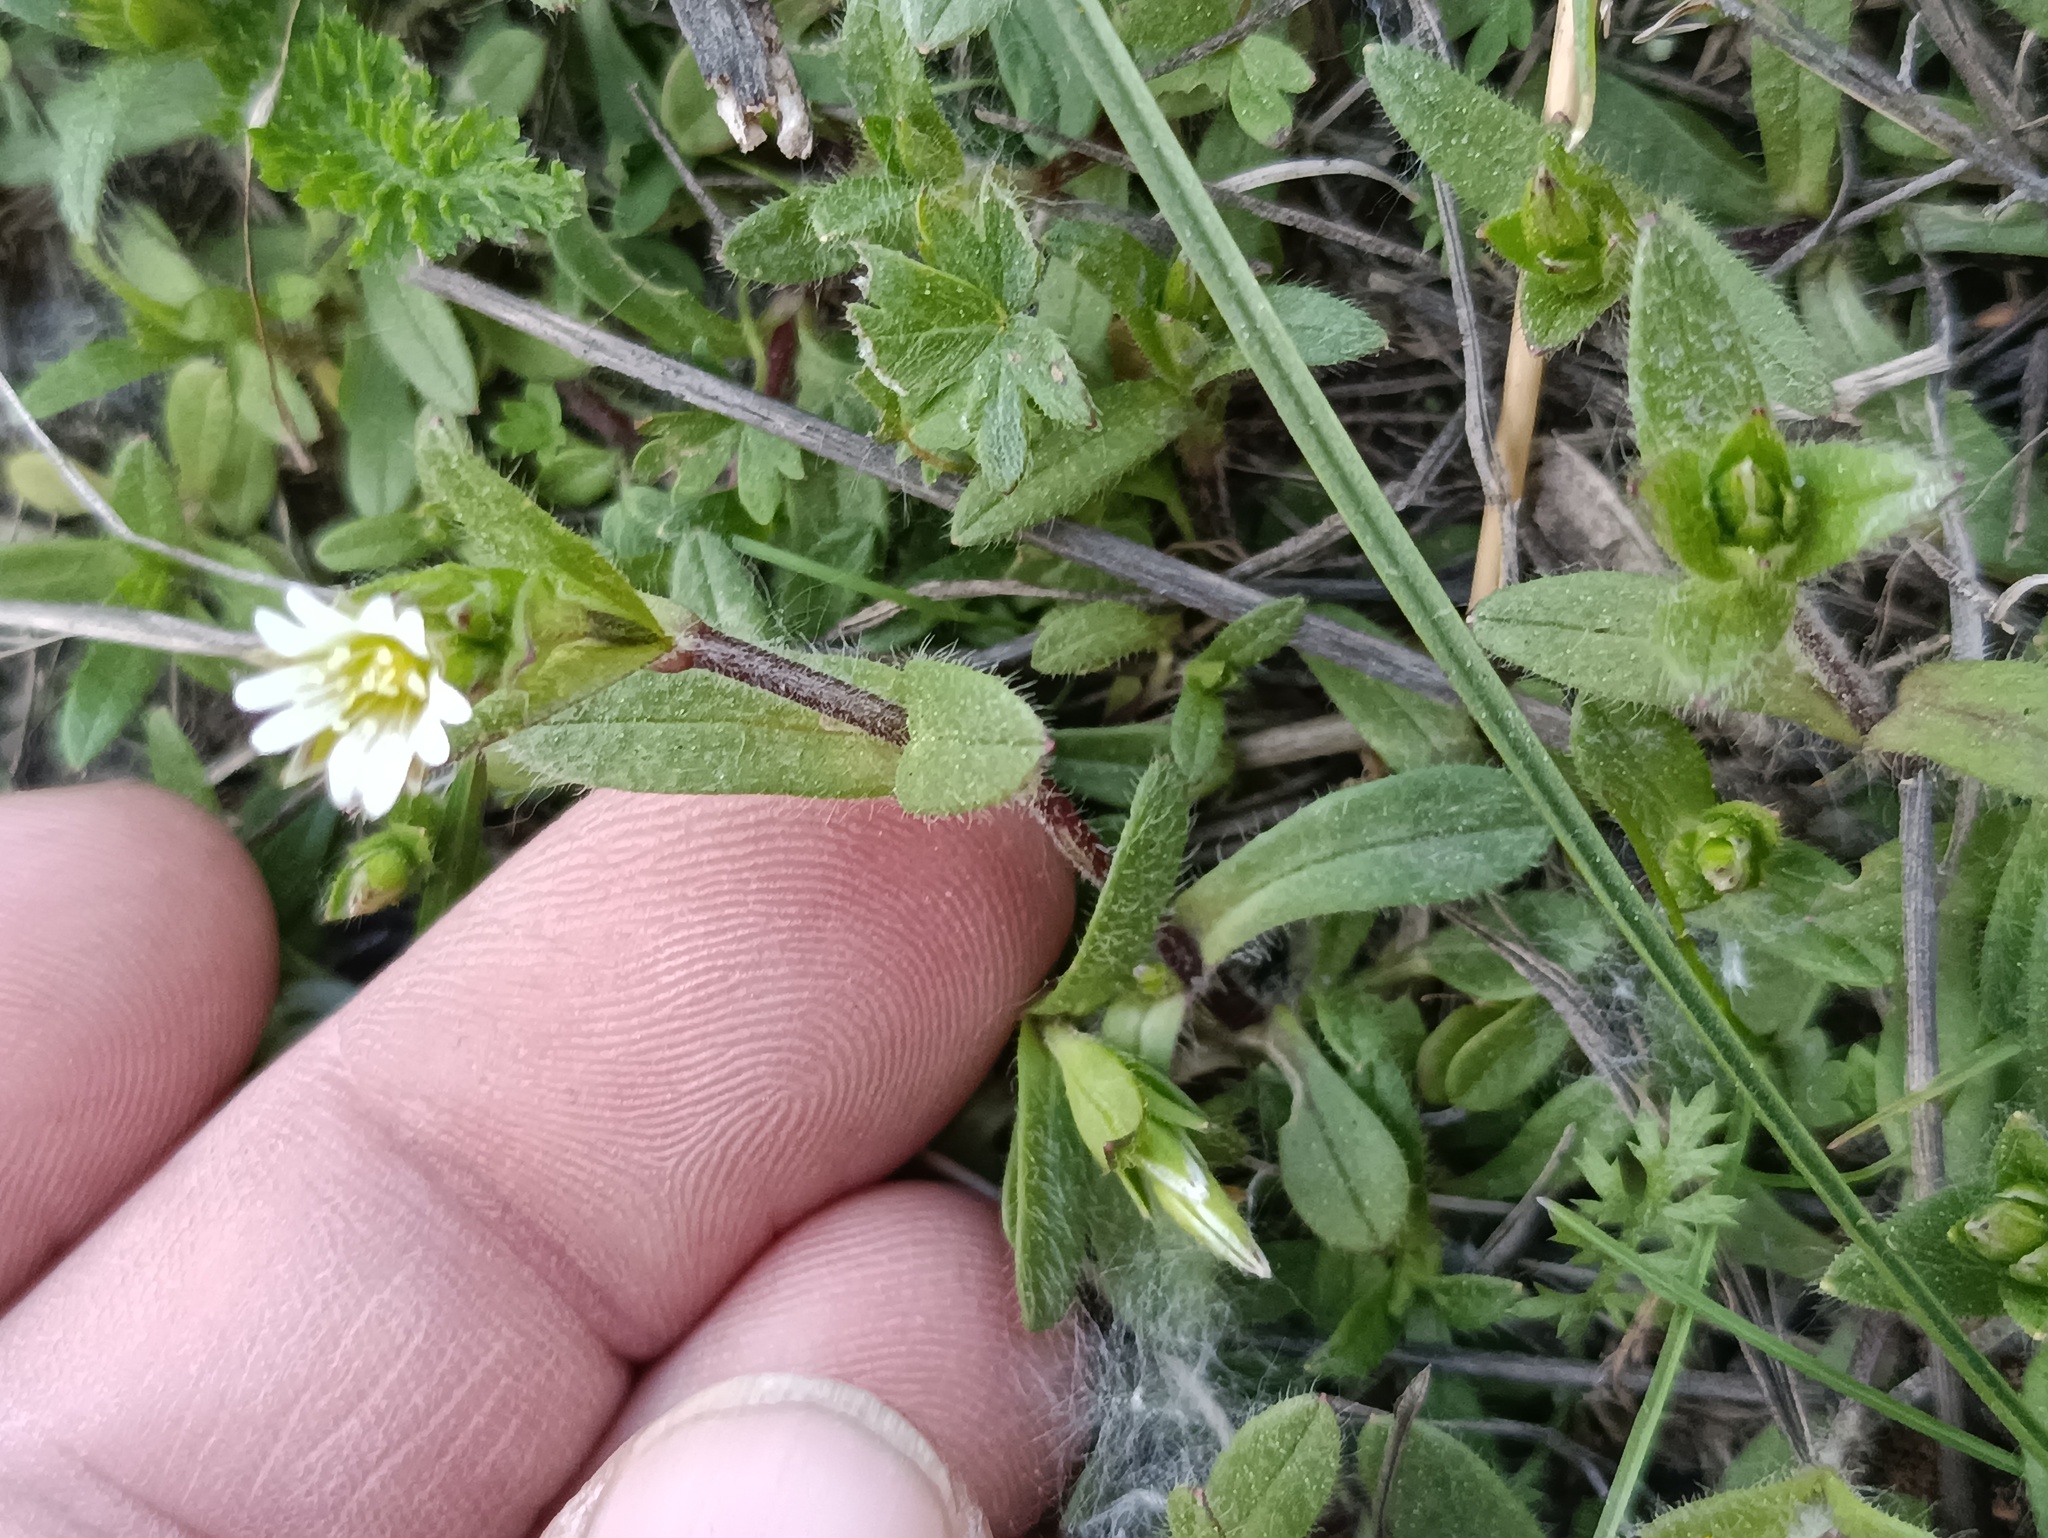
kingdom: Plantae
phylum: Tracheophyta
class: Magnoliopsida
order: Caryophyllales
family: Caryophyllaceae
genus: Cerastium
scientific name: Cerastium holosteoides
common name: Big chickweed
